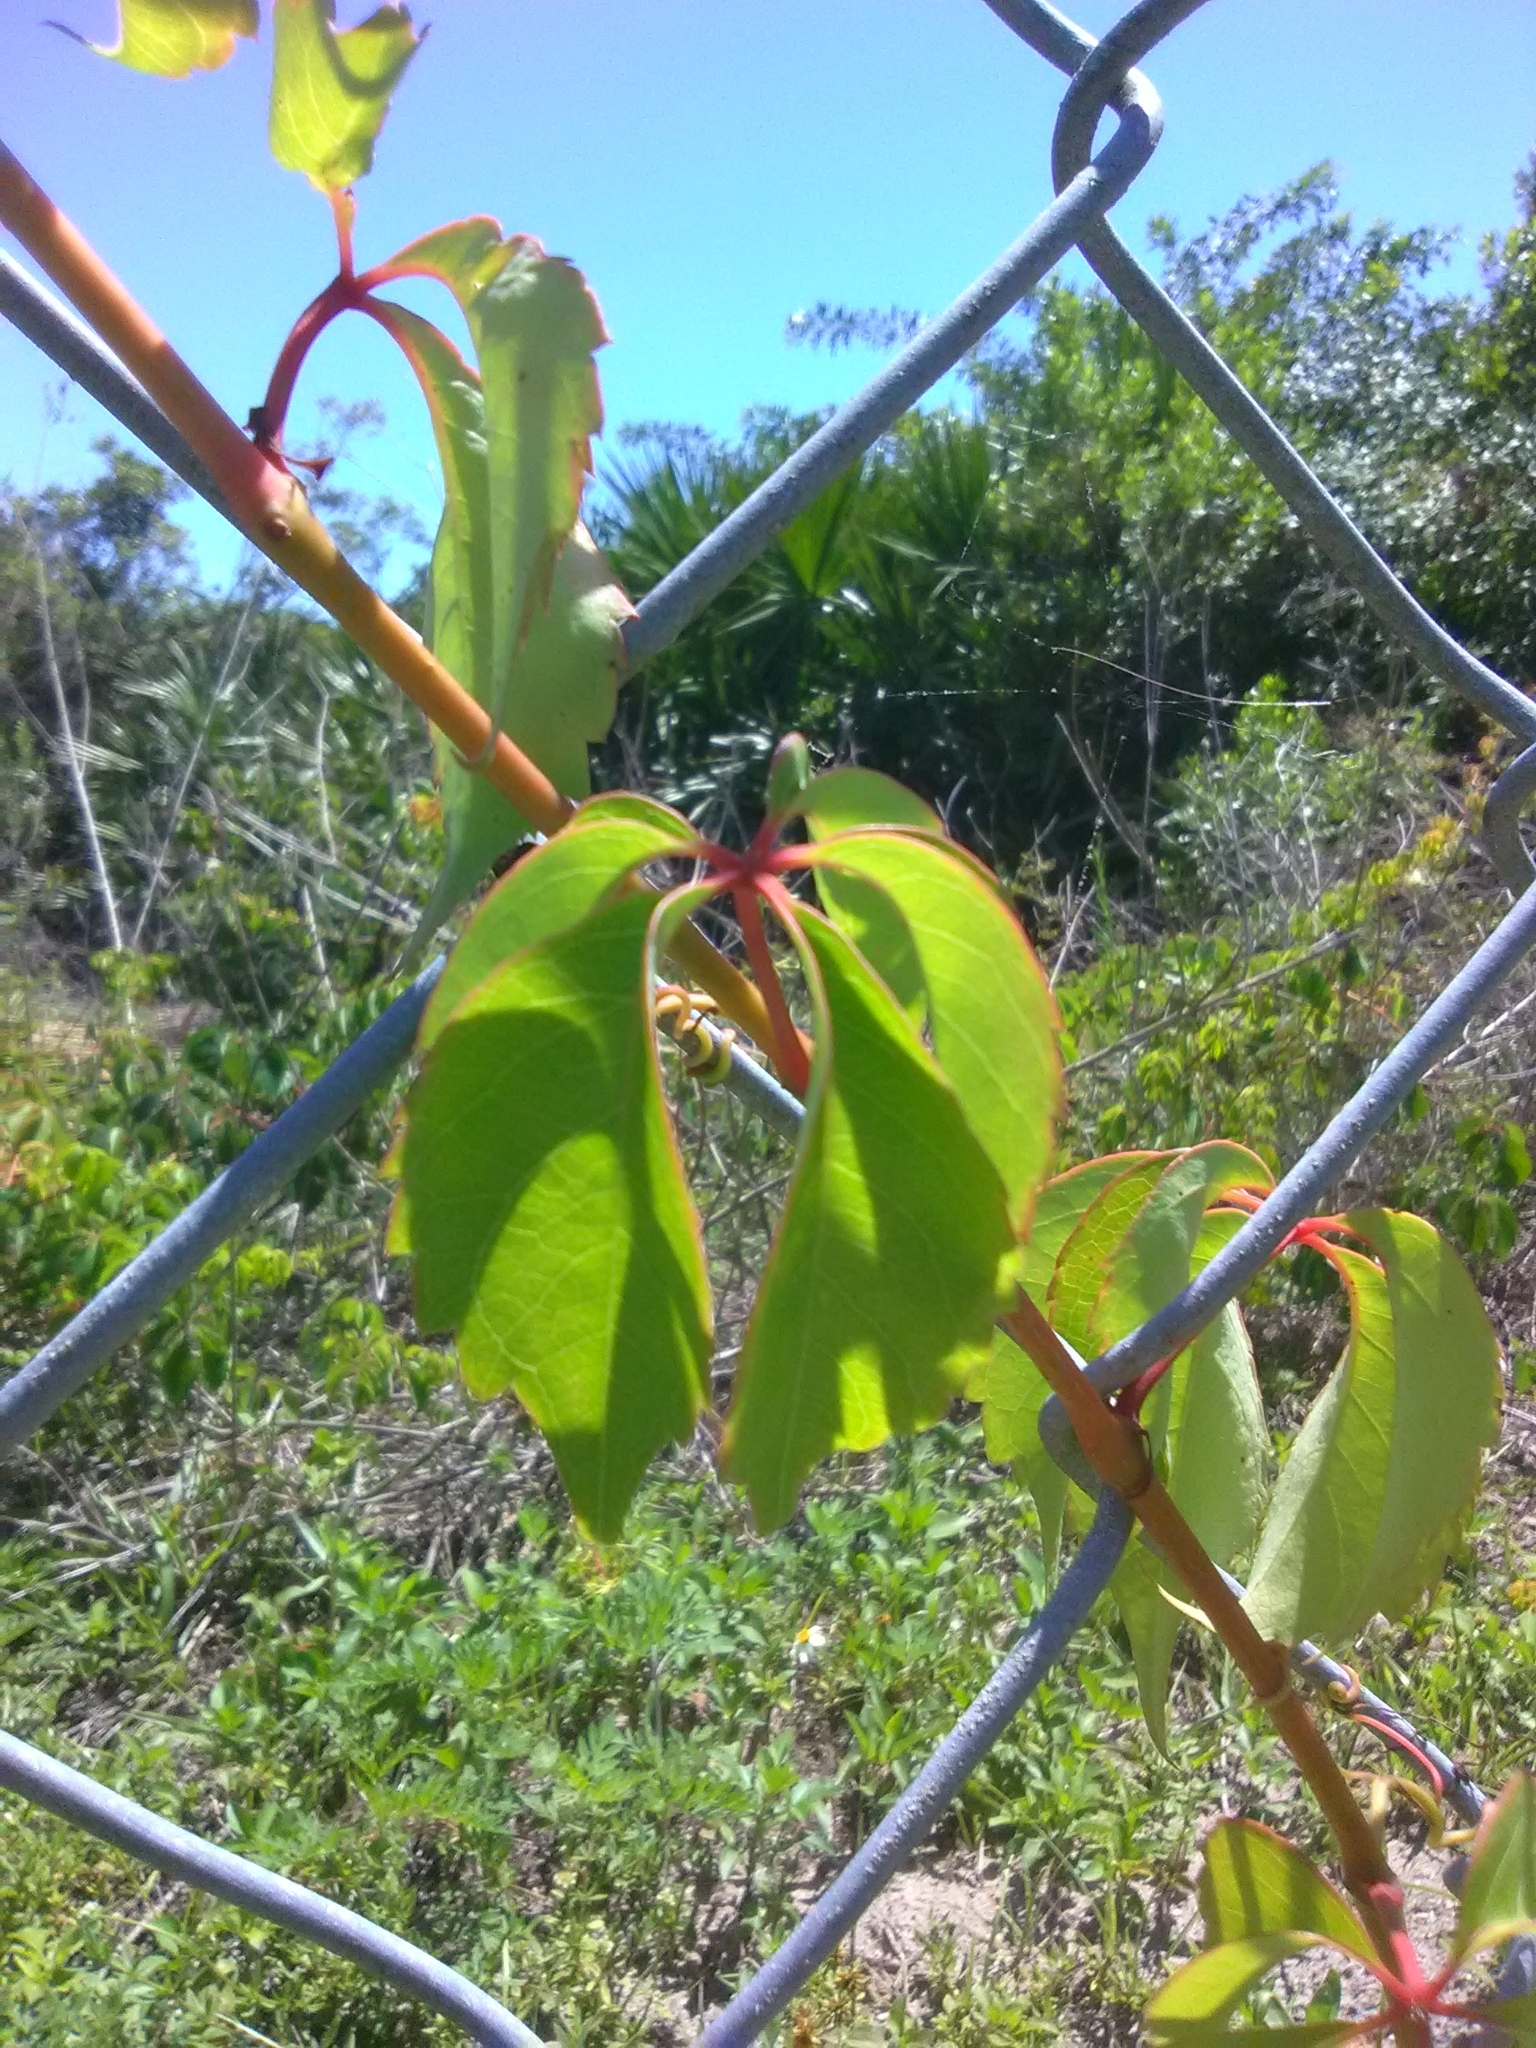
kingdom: Plantae
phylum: Tracheophyta
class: Magnoliopsida
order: Vitales
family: Vitaceae
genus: Parthenocissus
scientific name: Parthenocissus quinquefolia
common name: Virginia-creeper
